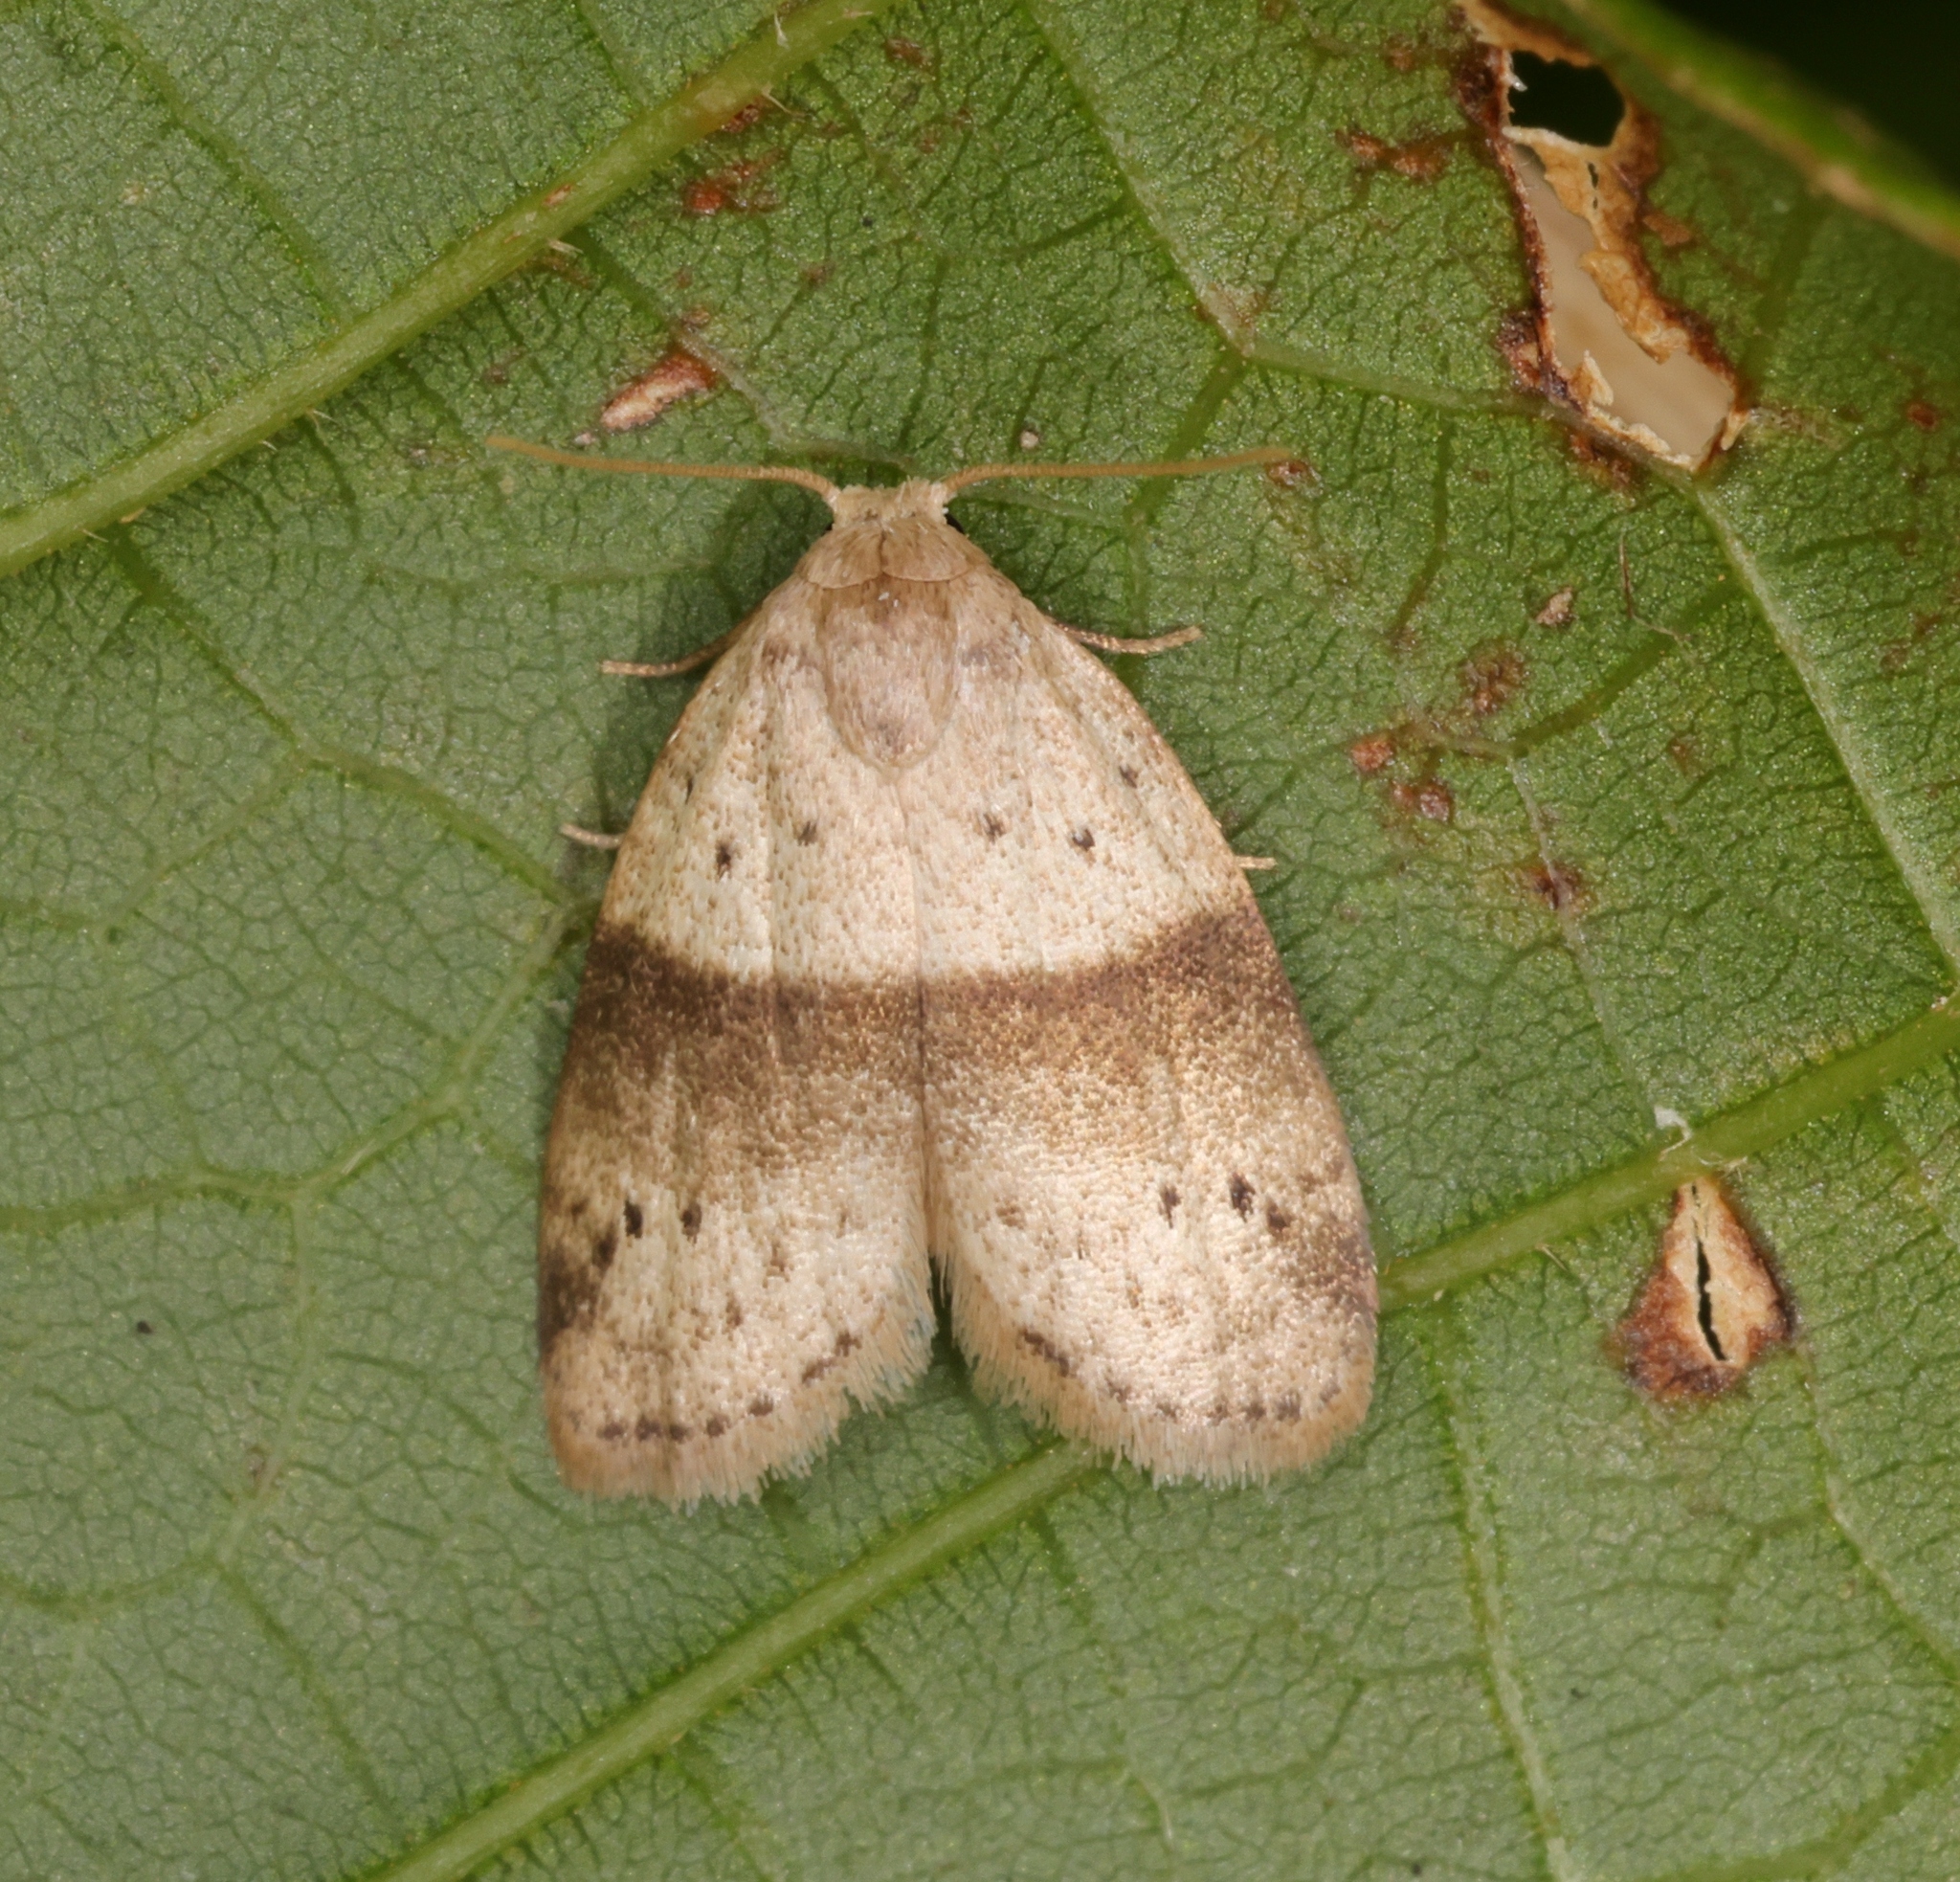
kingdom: Animalia
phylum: Arthropoda
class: Insecta
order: Lepidoptera
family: Erebidae
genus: Stictane
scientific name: Stictane rectilinea
